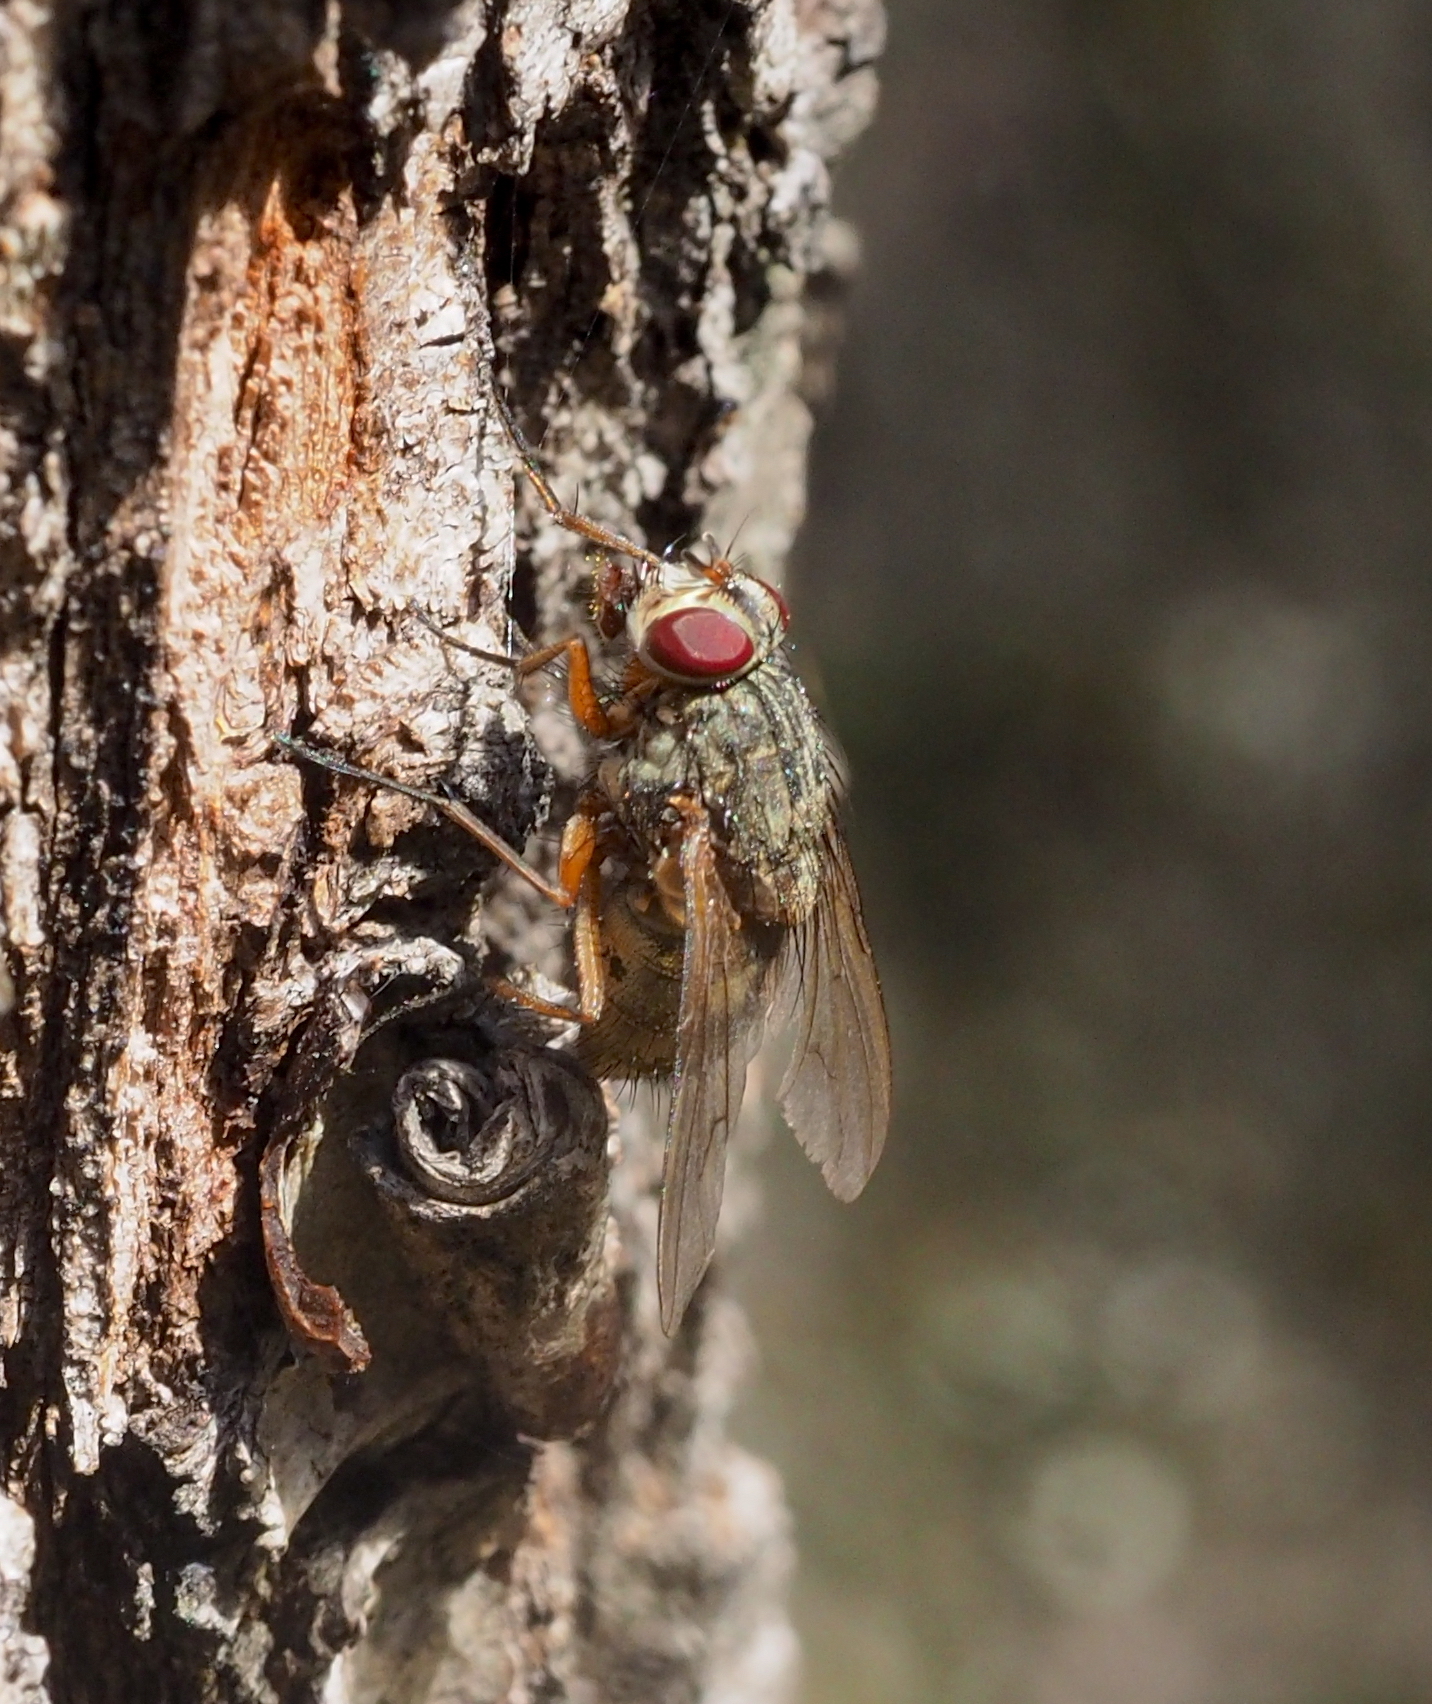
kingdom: Animalia
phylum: Arthropoda
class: Insecta
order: Diptera
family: Muscidae
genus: Phaonia
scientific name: Phaonia valida
